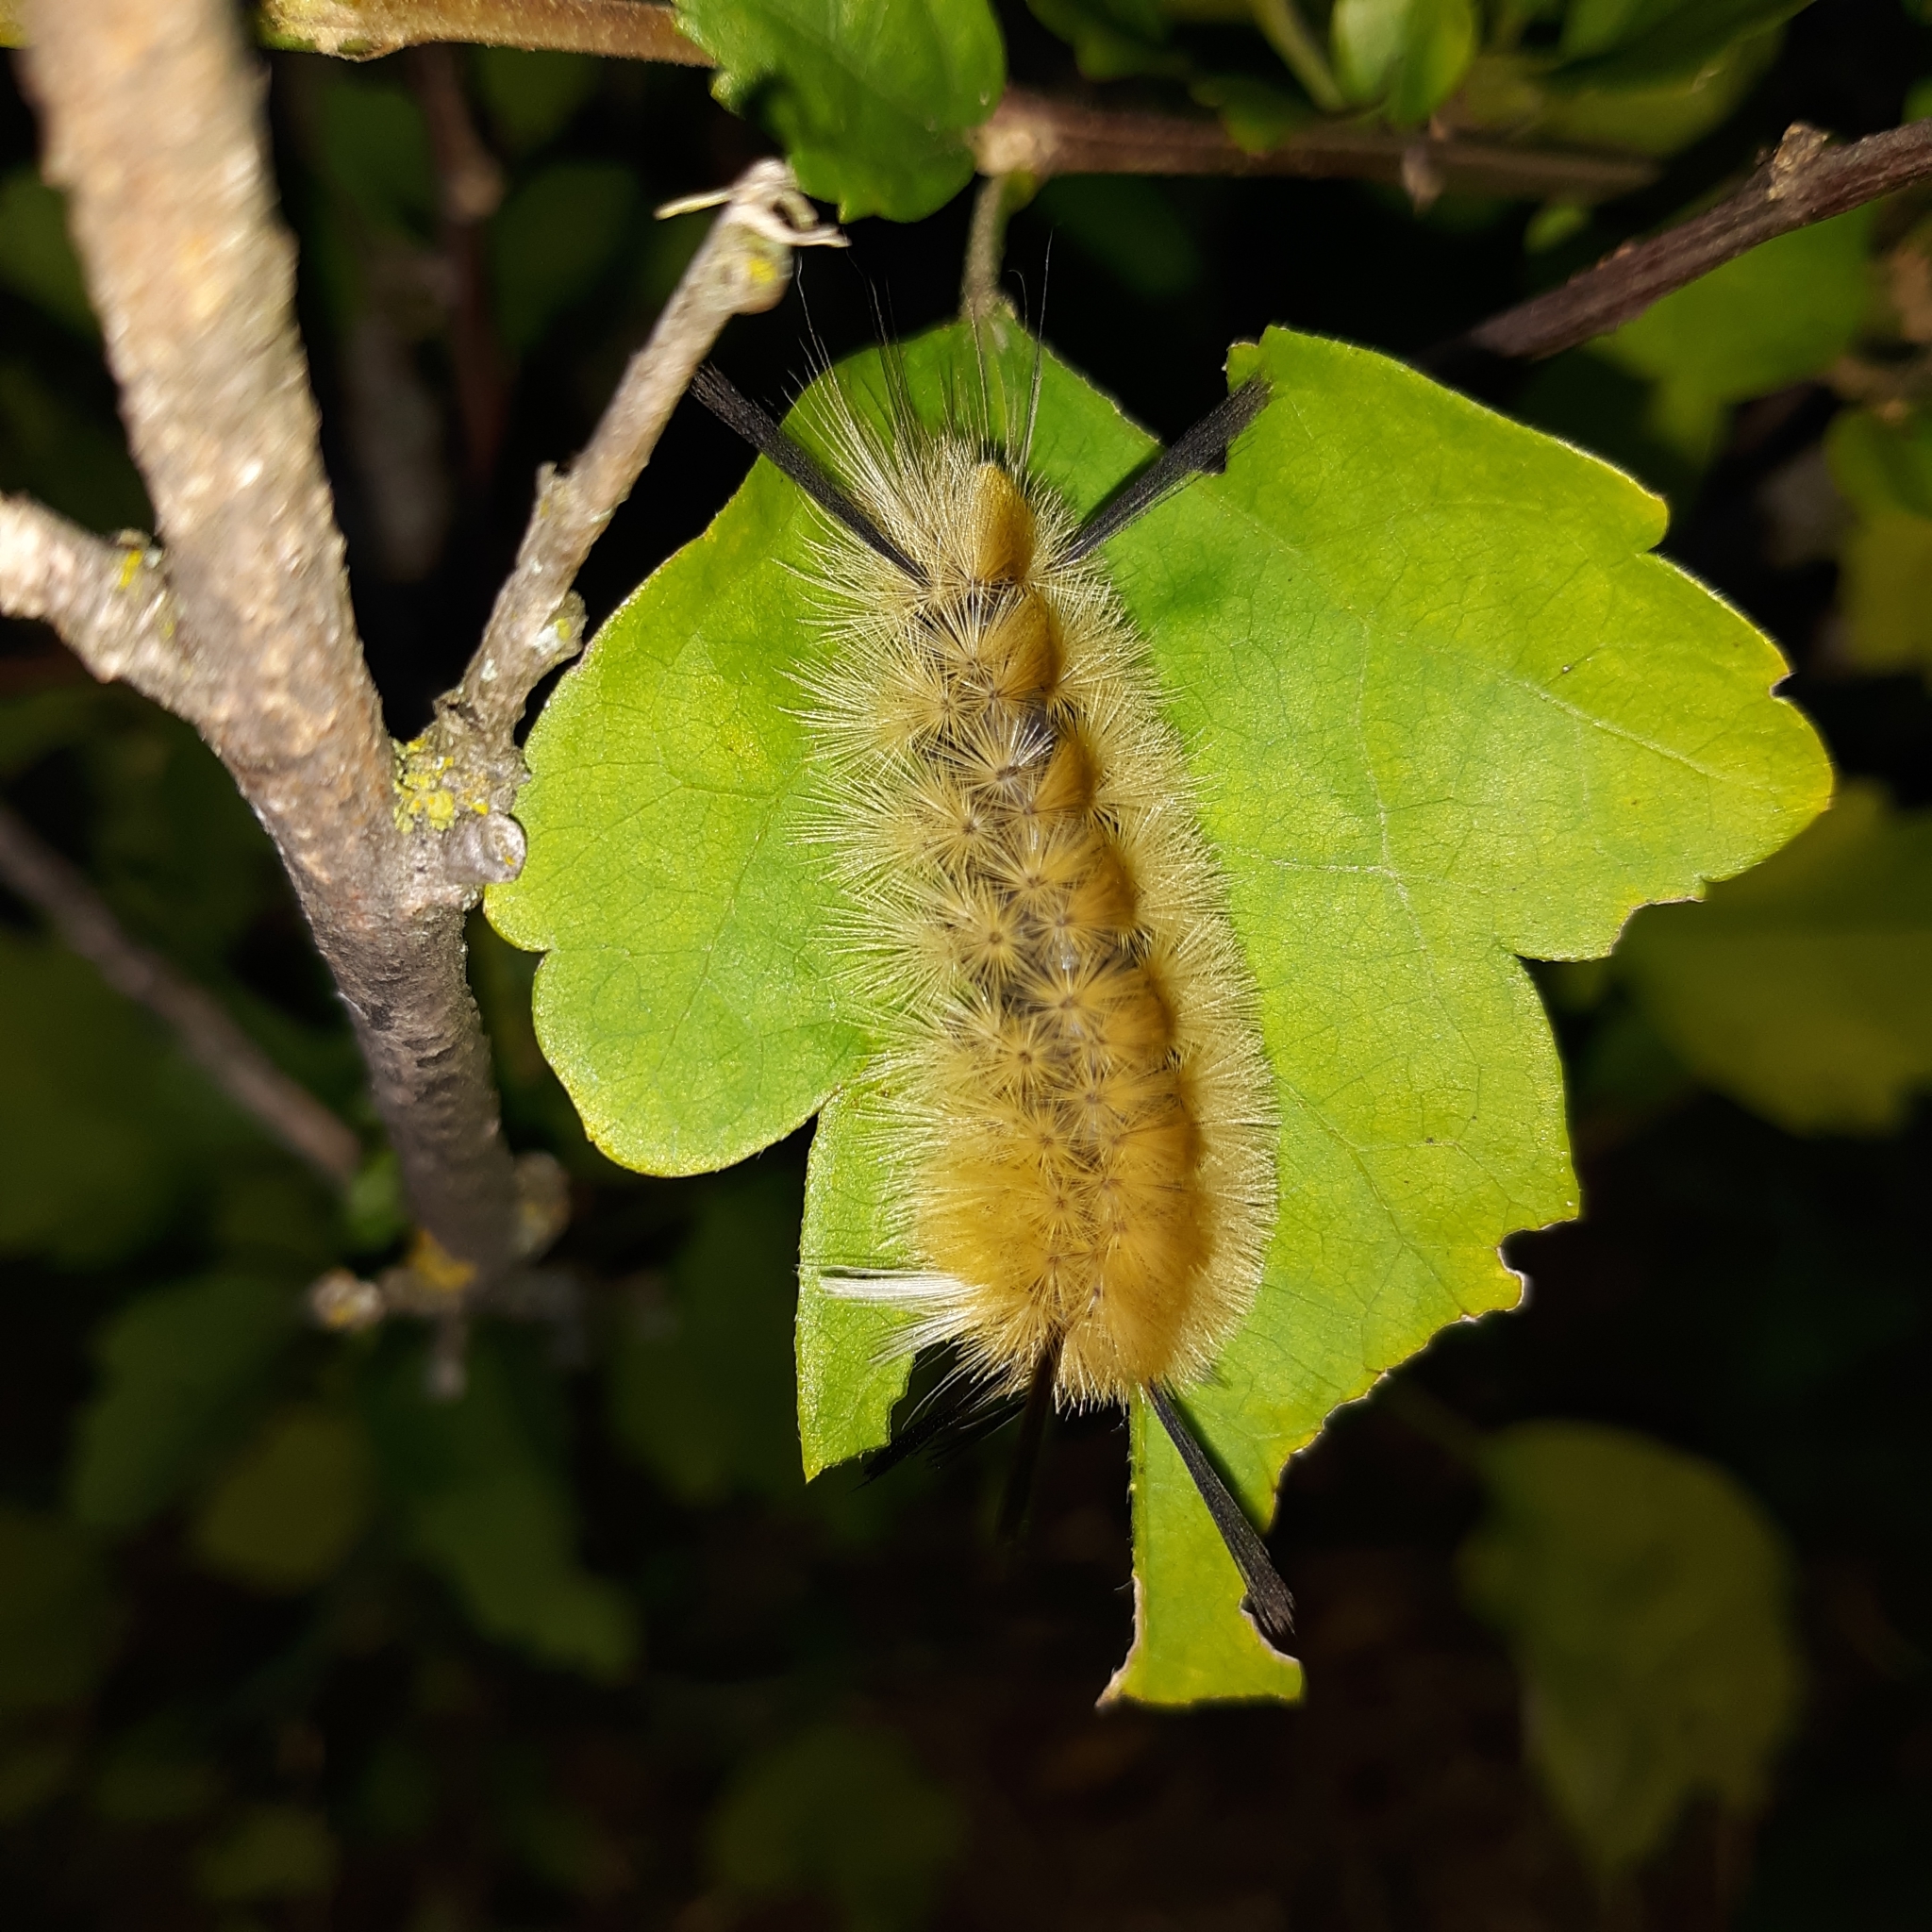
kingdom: Animalia
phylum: Arthropoda
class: Insecta
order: Lepidoptera
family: Erebidae
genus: Halysidota
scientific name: Halysidota tessellaris
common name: Banded tussock moth
